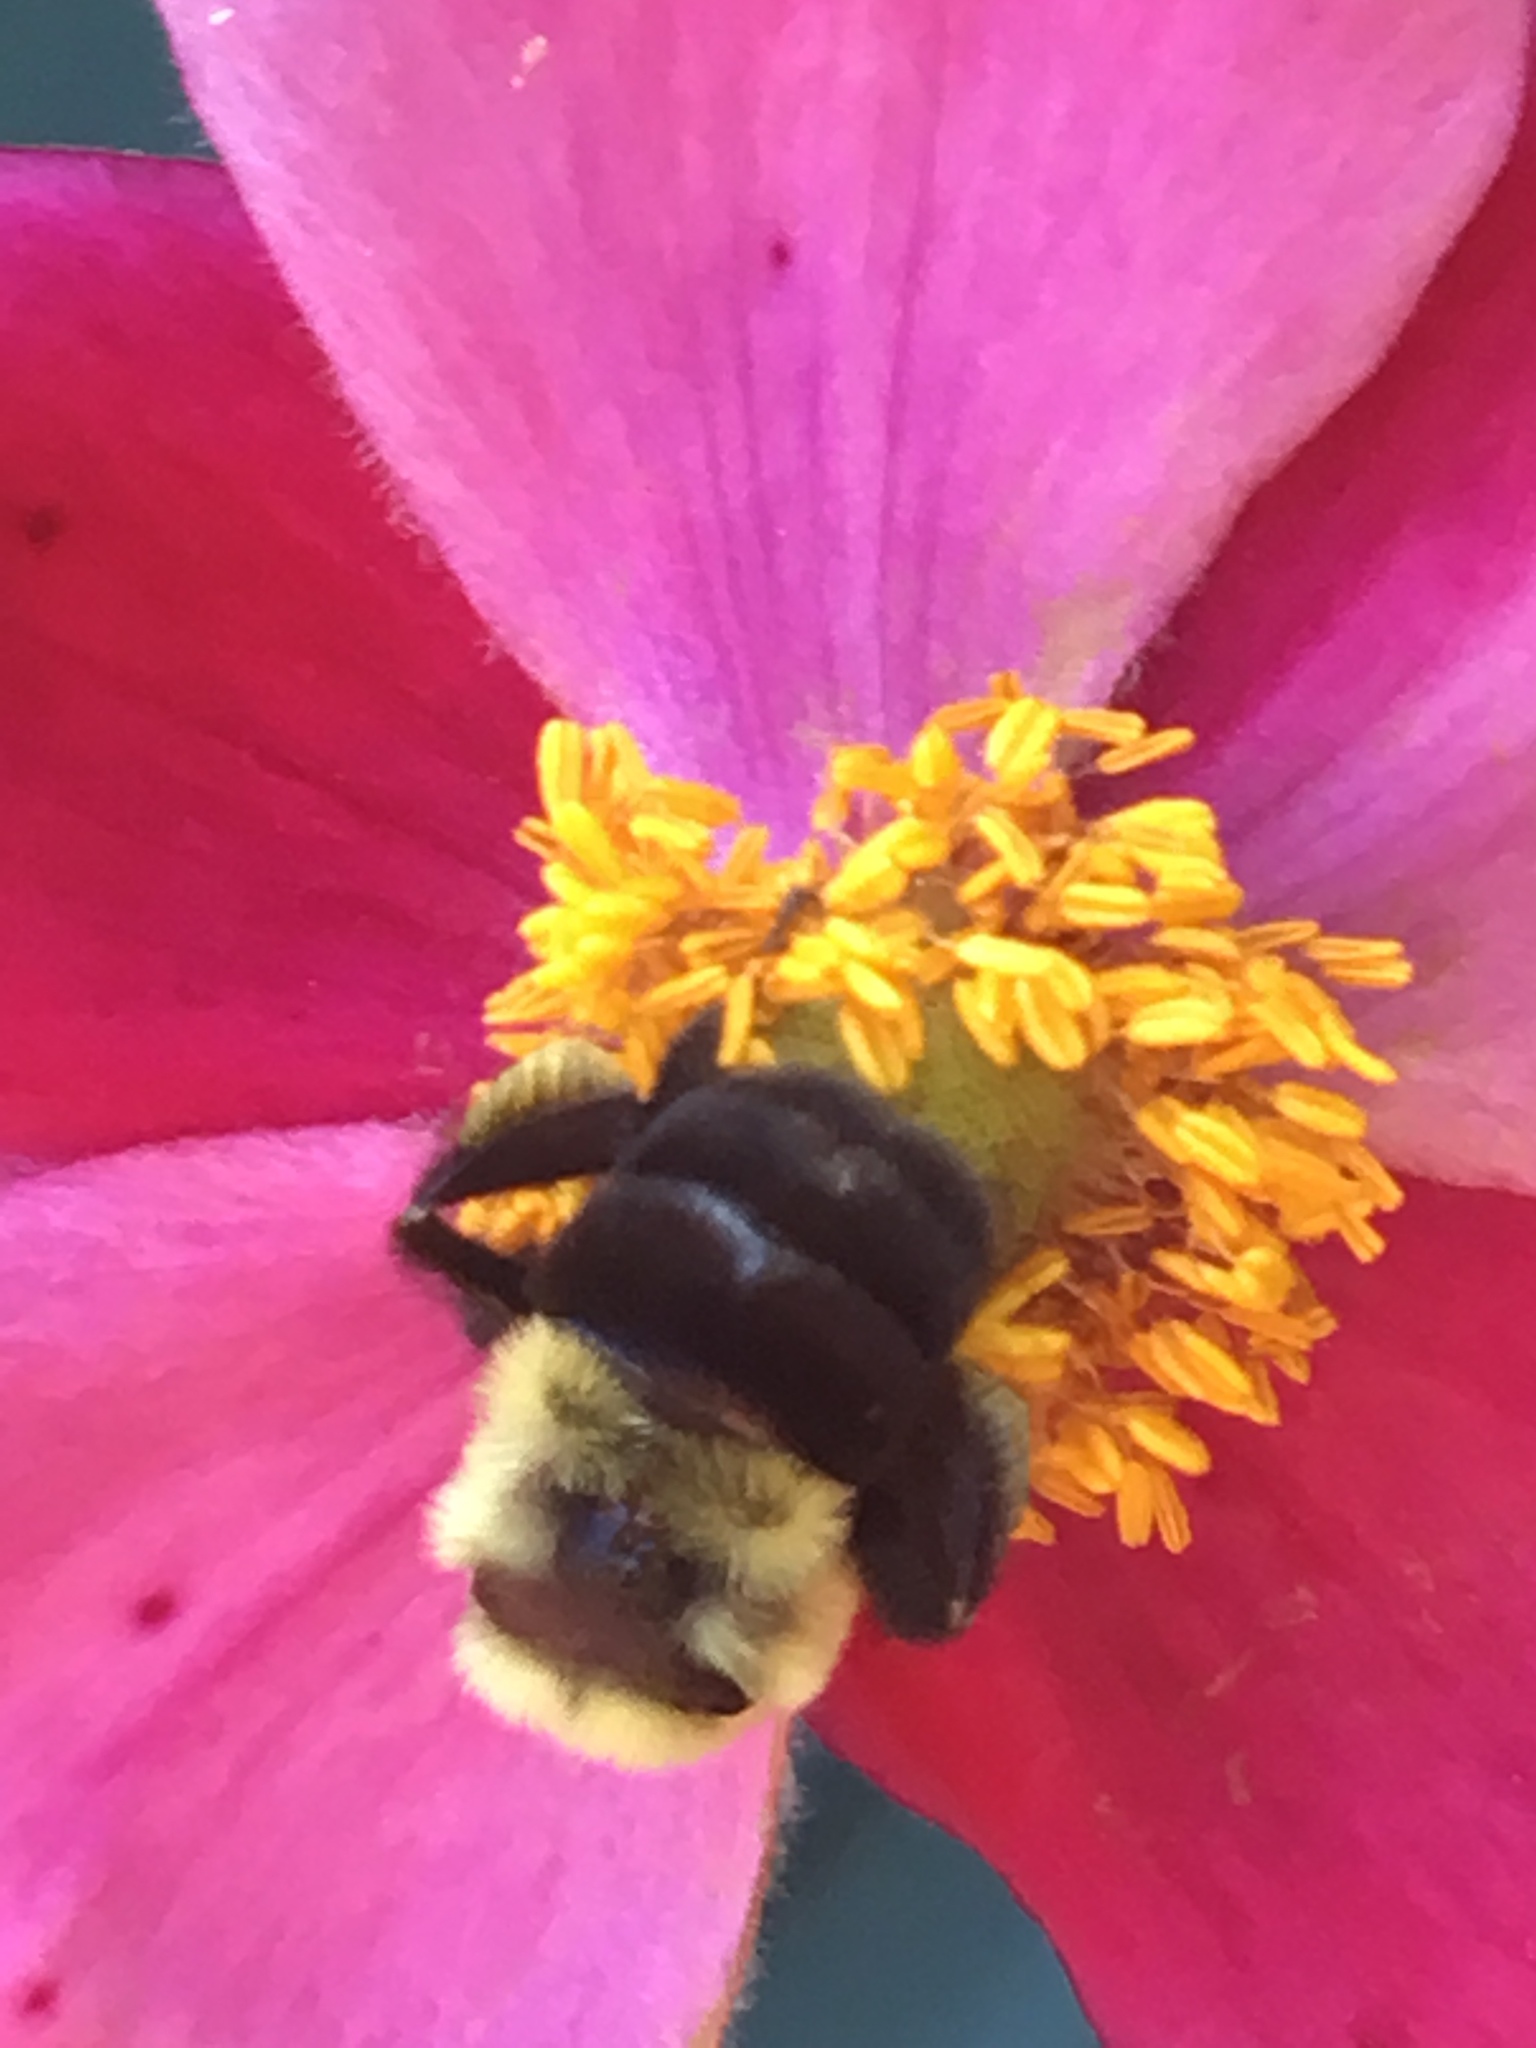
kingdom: Animalia
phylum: Arthropoda
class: Insecta
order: Hymenoptera
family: Apidae
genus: Bombus
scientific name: Bombus impatiens
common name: Common eastern bumble bee
